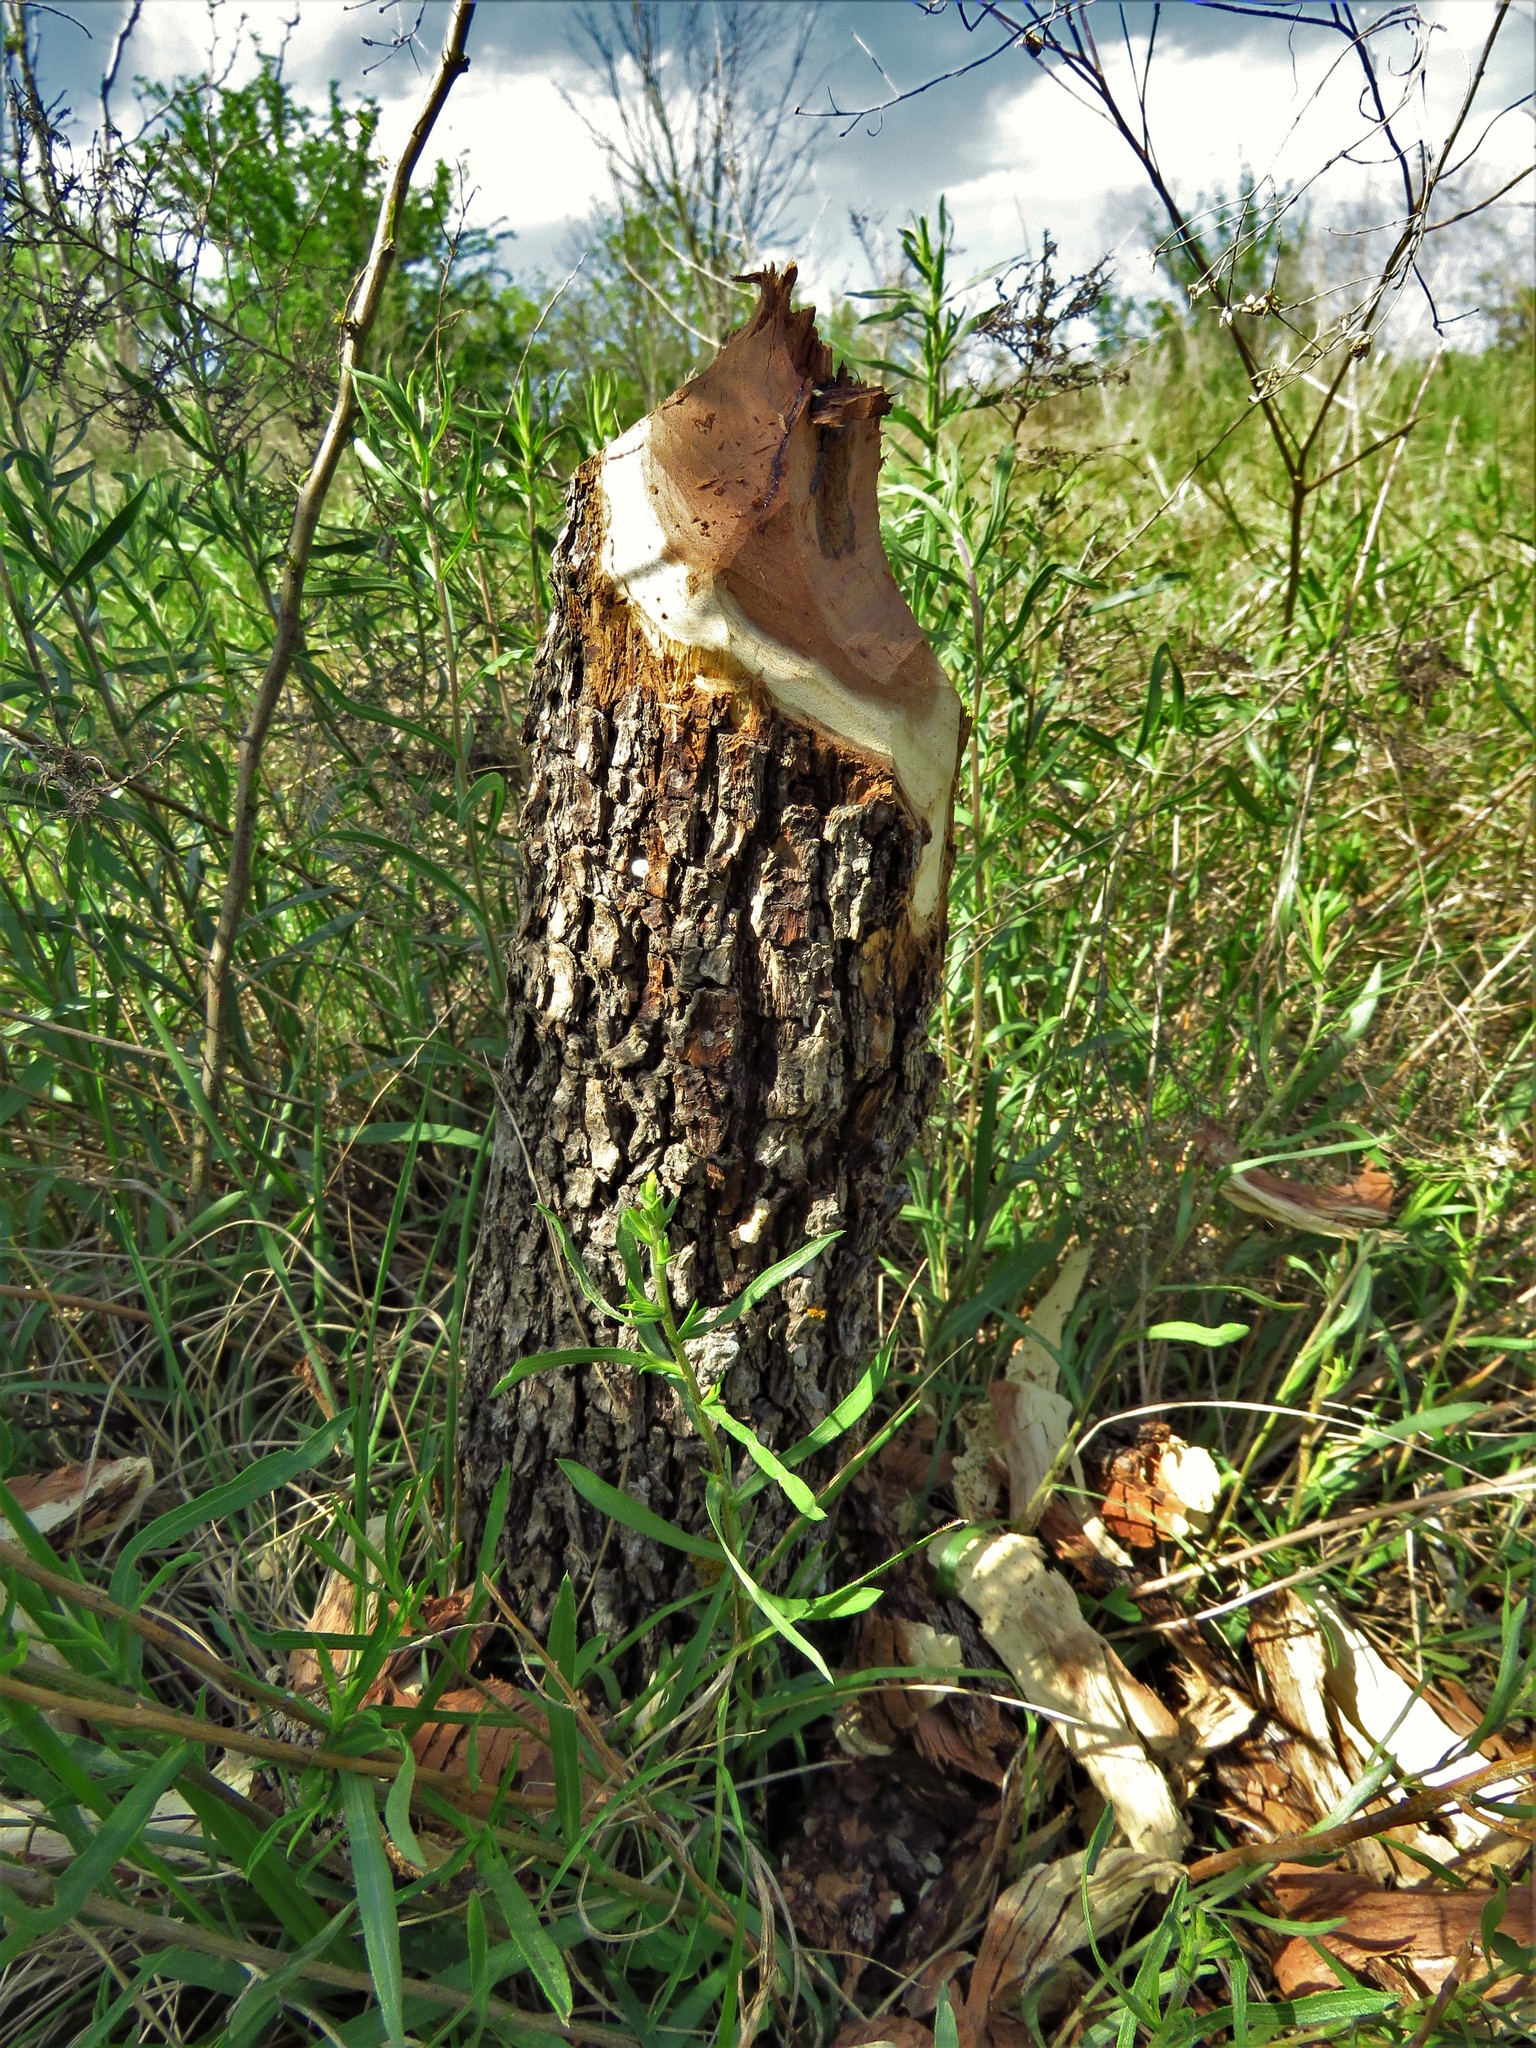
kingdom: Animalia
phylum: Chordata
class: Mammalia
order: Rodentia
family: Castoridae
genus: Castor
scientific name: Castor canadensis
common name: American beaver
